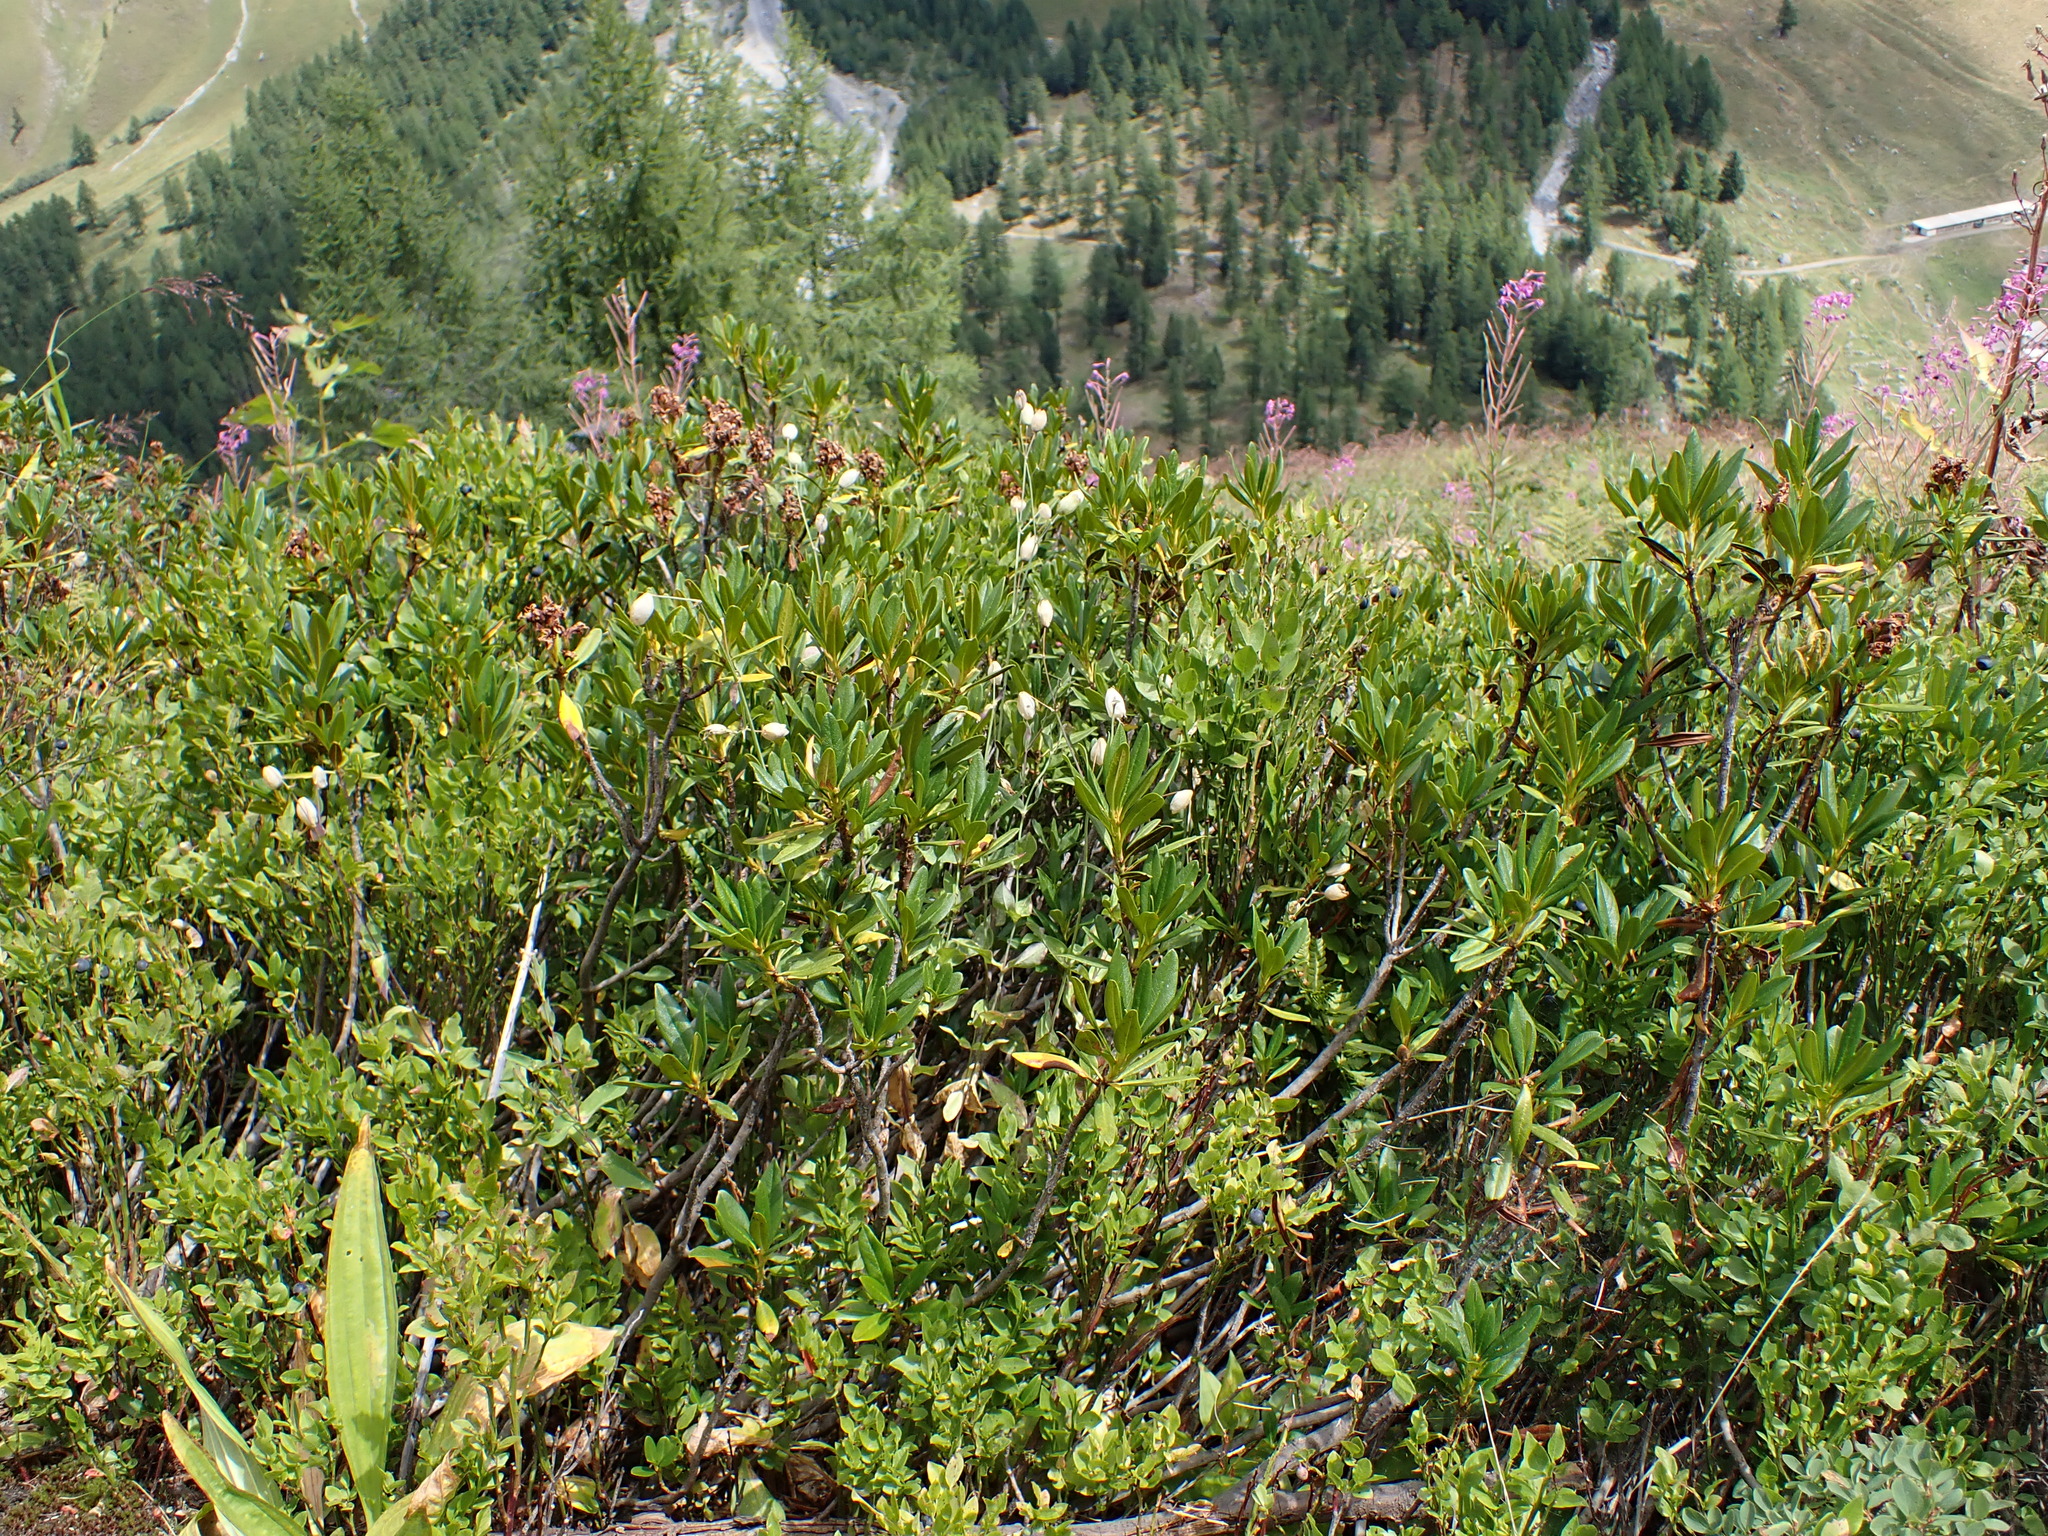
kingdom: Plantae
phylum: Tracheophyta
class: Magnoliopsida
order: Ericales
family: Ericaceae
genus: Rhododendron
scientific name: Rhododendron ferrugineum
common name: Alpenrose
